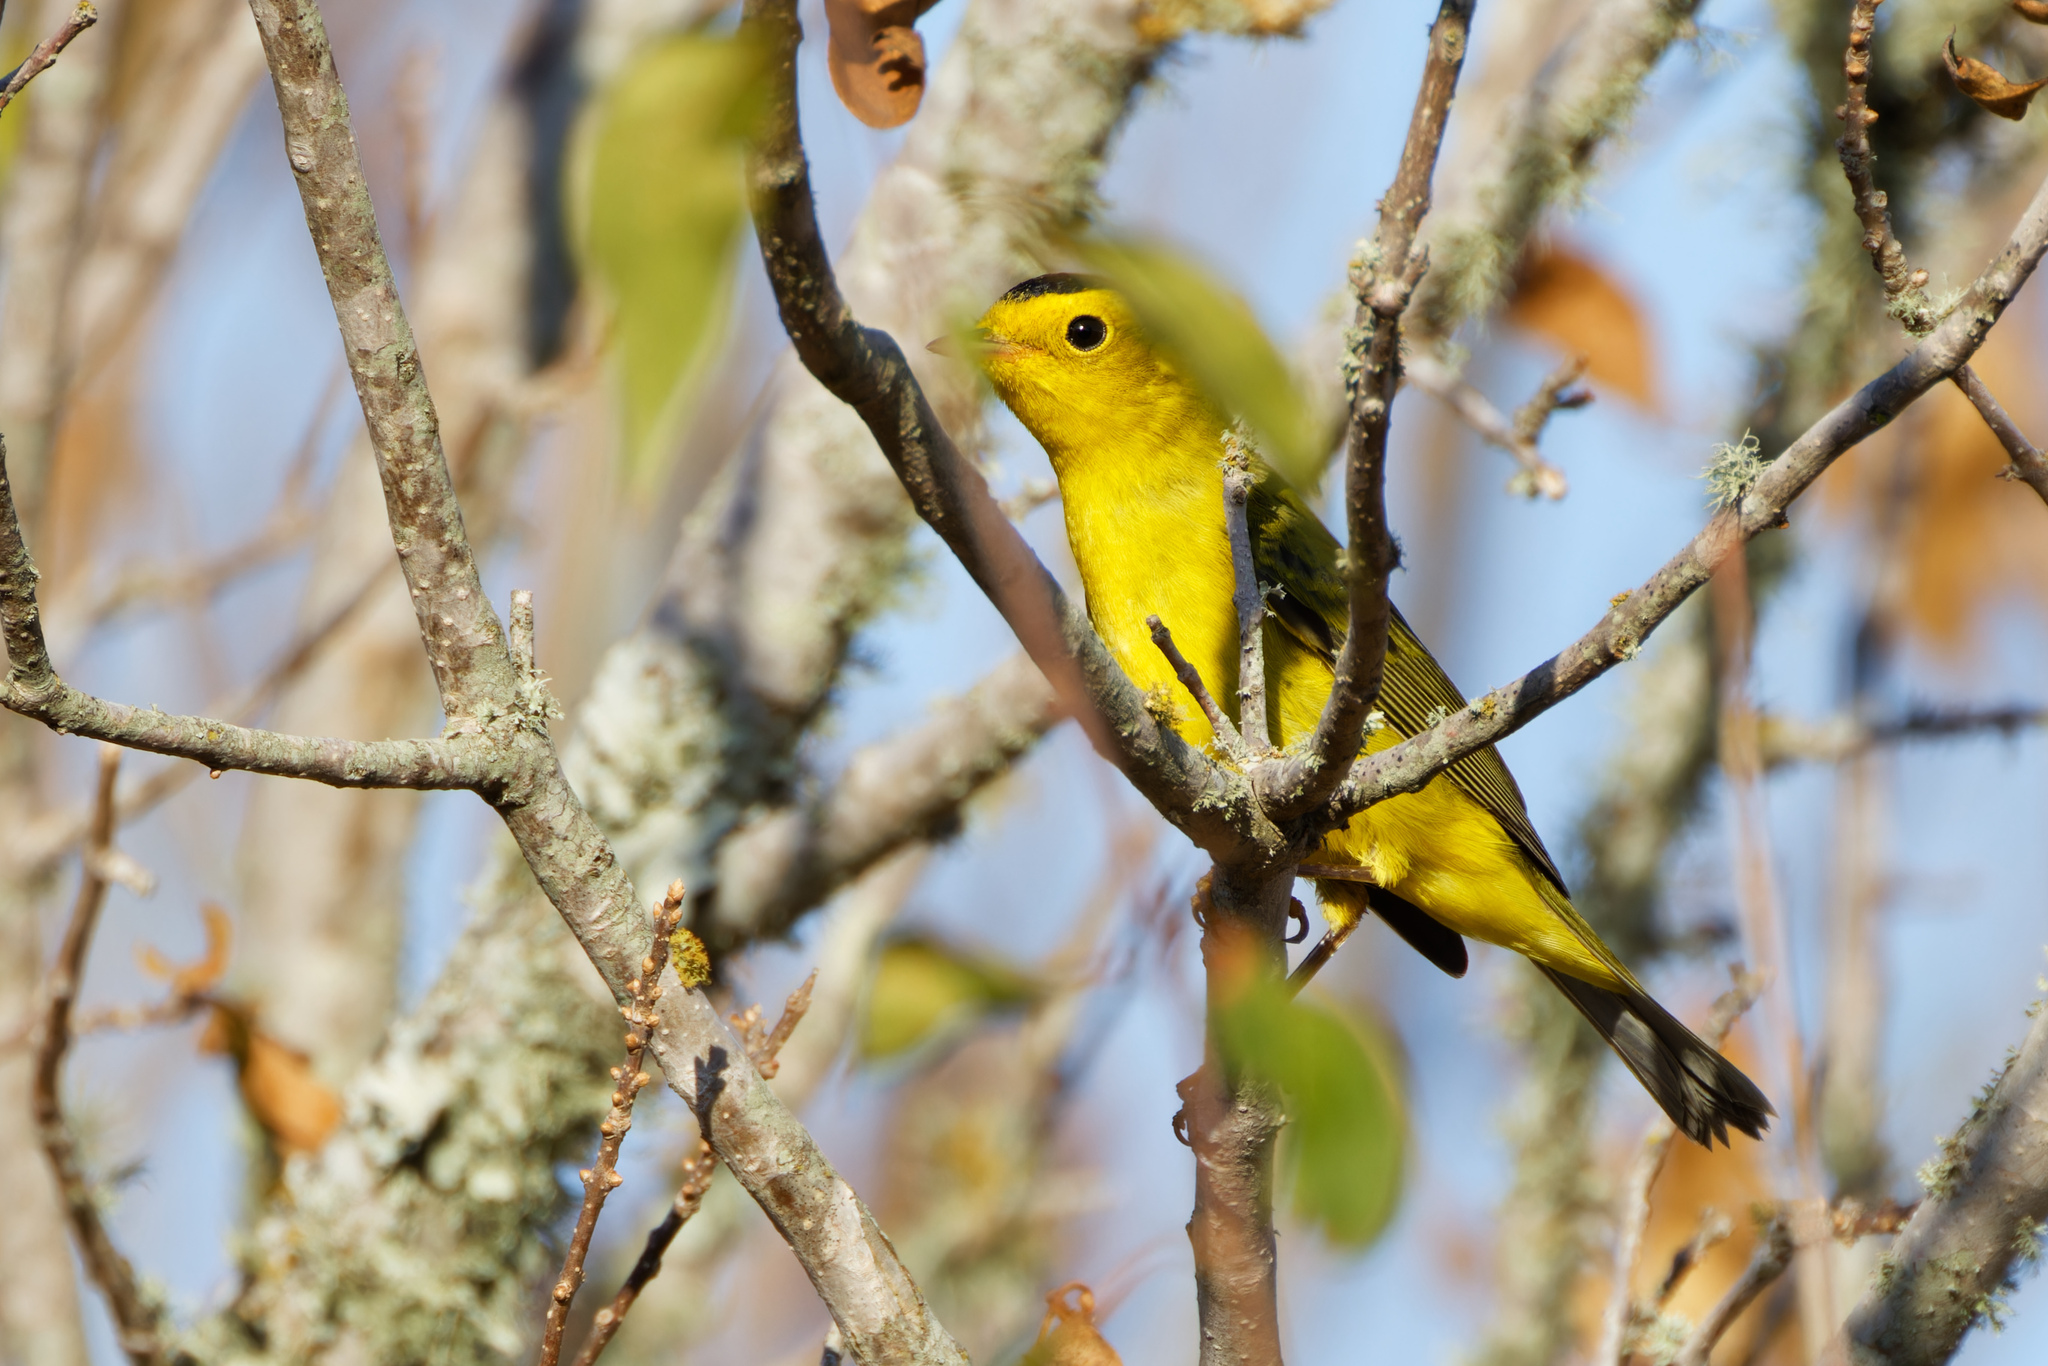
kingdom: Animalia
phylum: Chordata
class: Aves
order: Passeriformes
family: Parulidae
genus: Cardellina
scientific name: Cardellina pusilla
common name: Wilson's warbler
